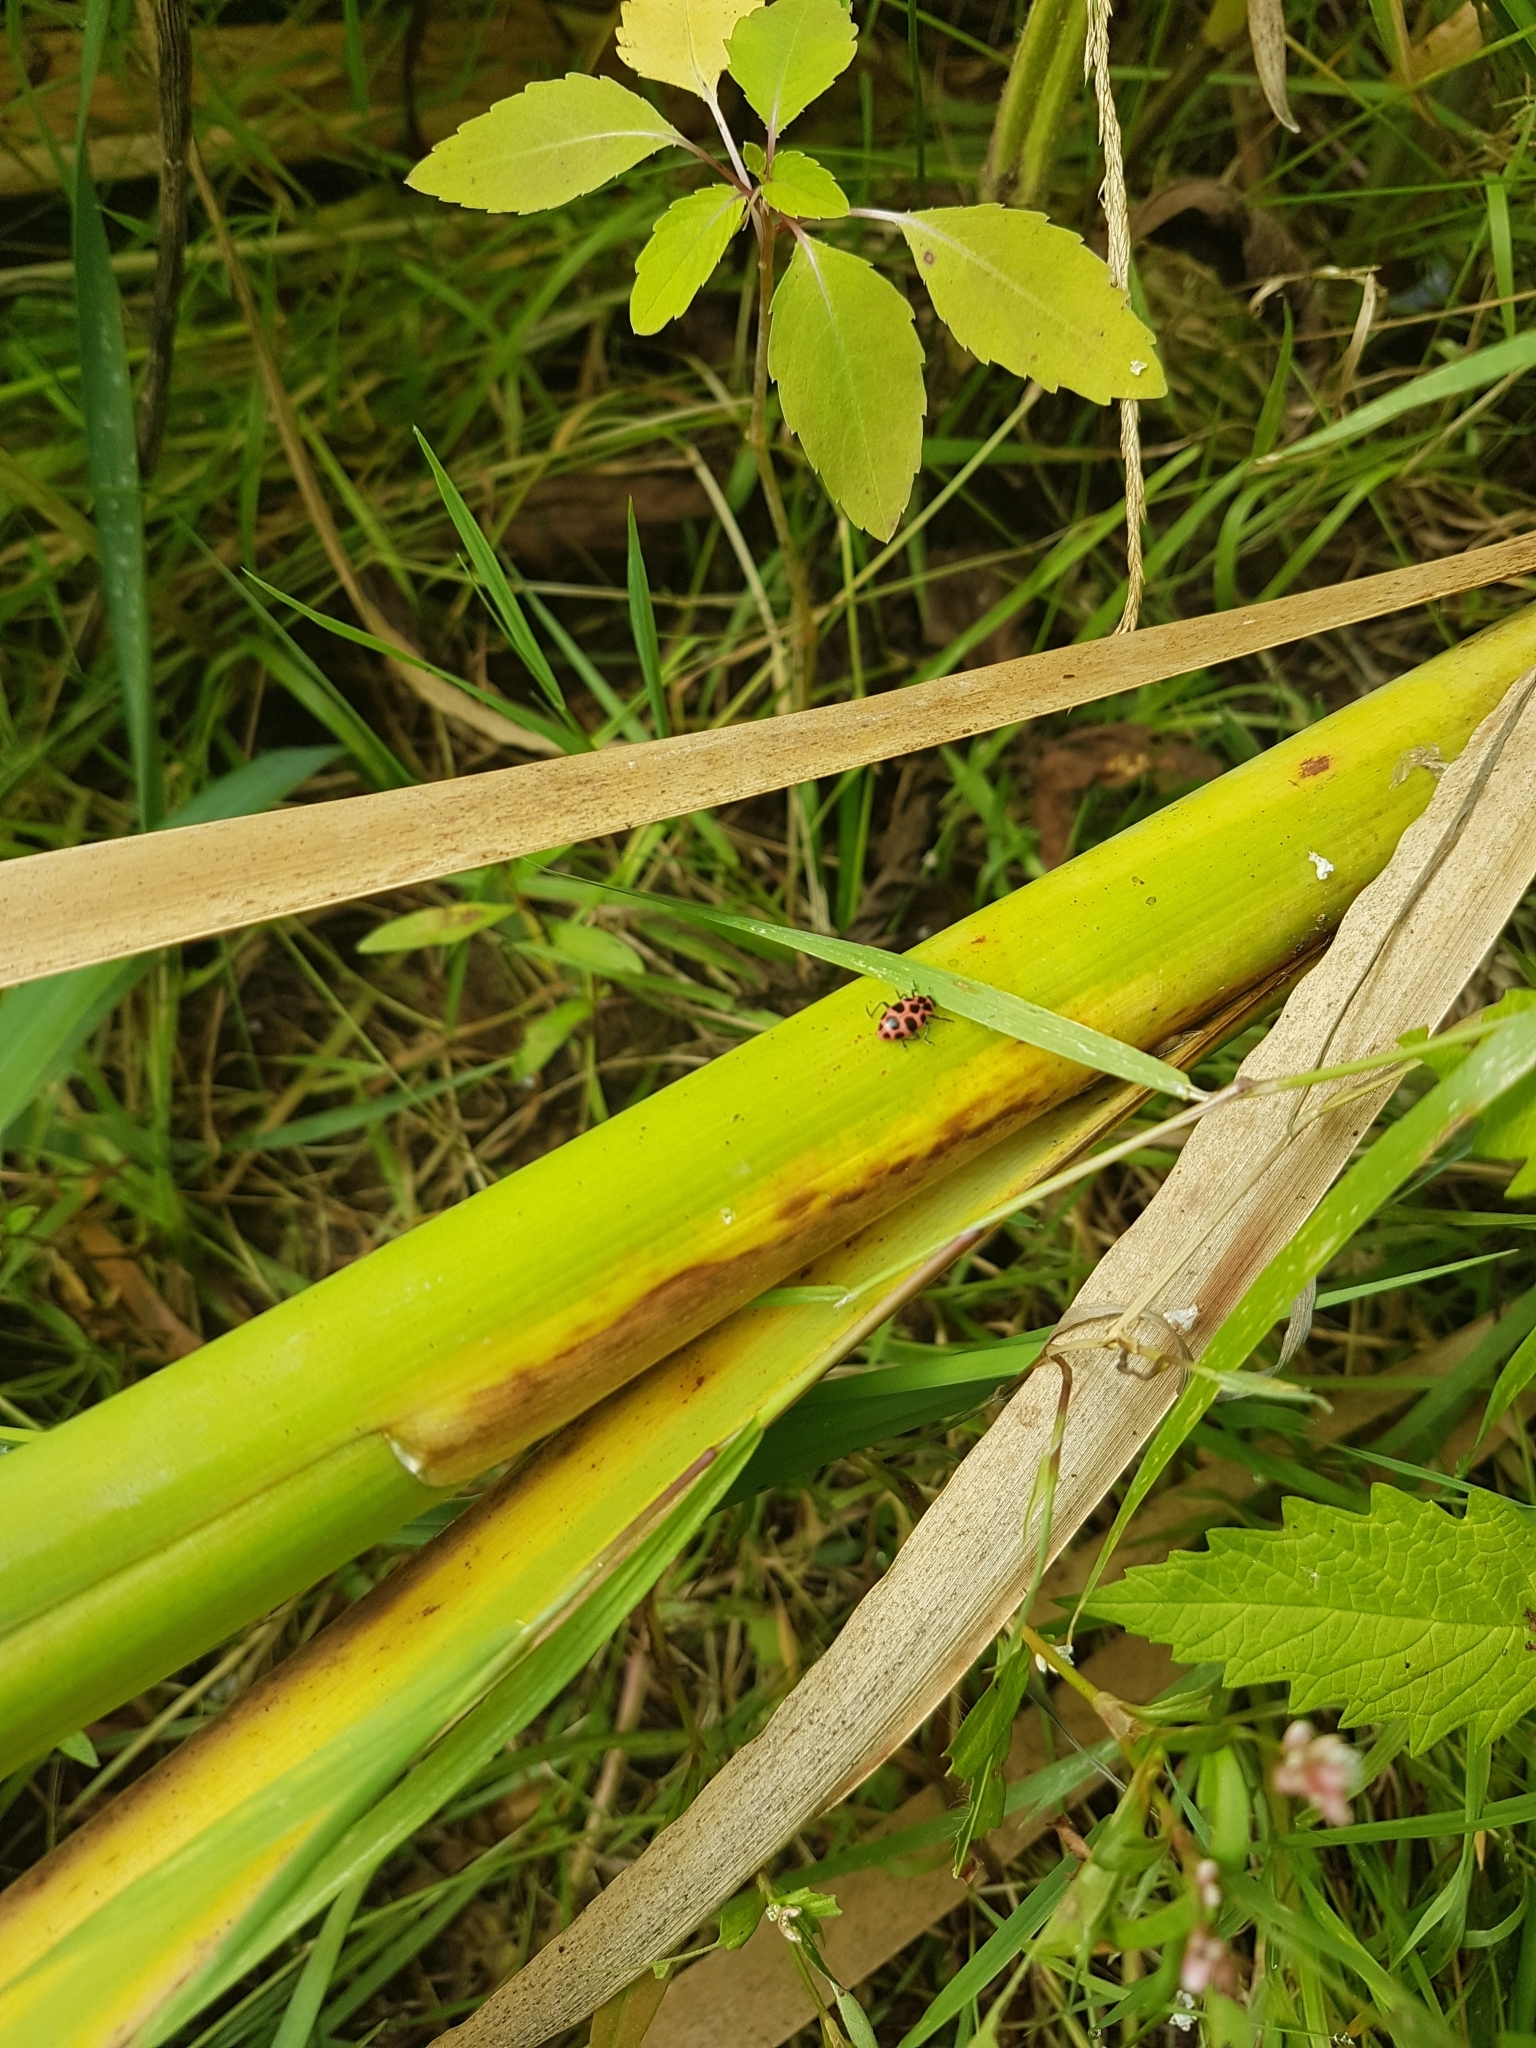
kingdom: Animalia
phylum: Arthropoda
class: Insecta
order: Coleoptera
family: Coccinellidae
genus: Coleomegilla
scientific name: Coleomegilla maculata
